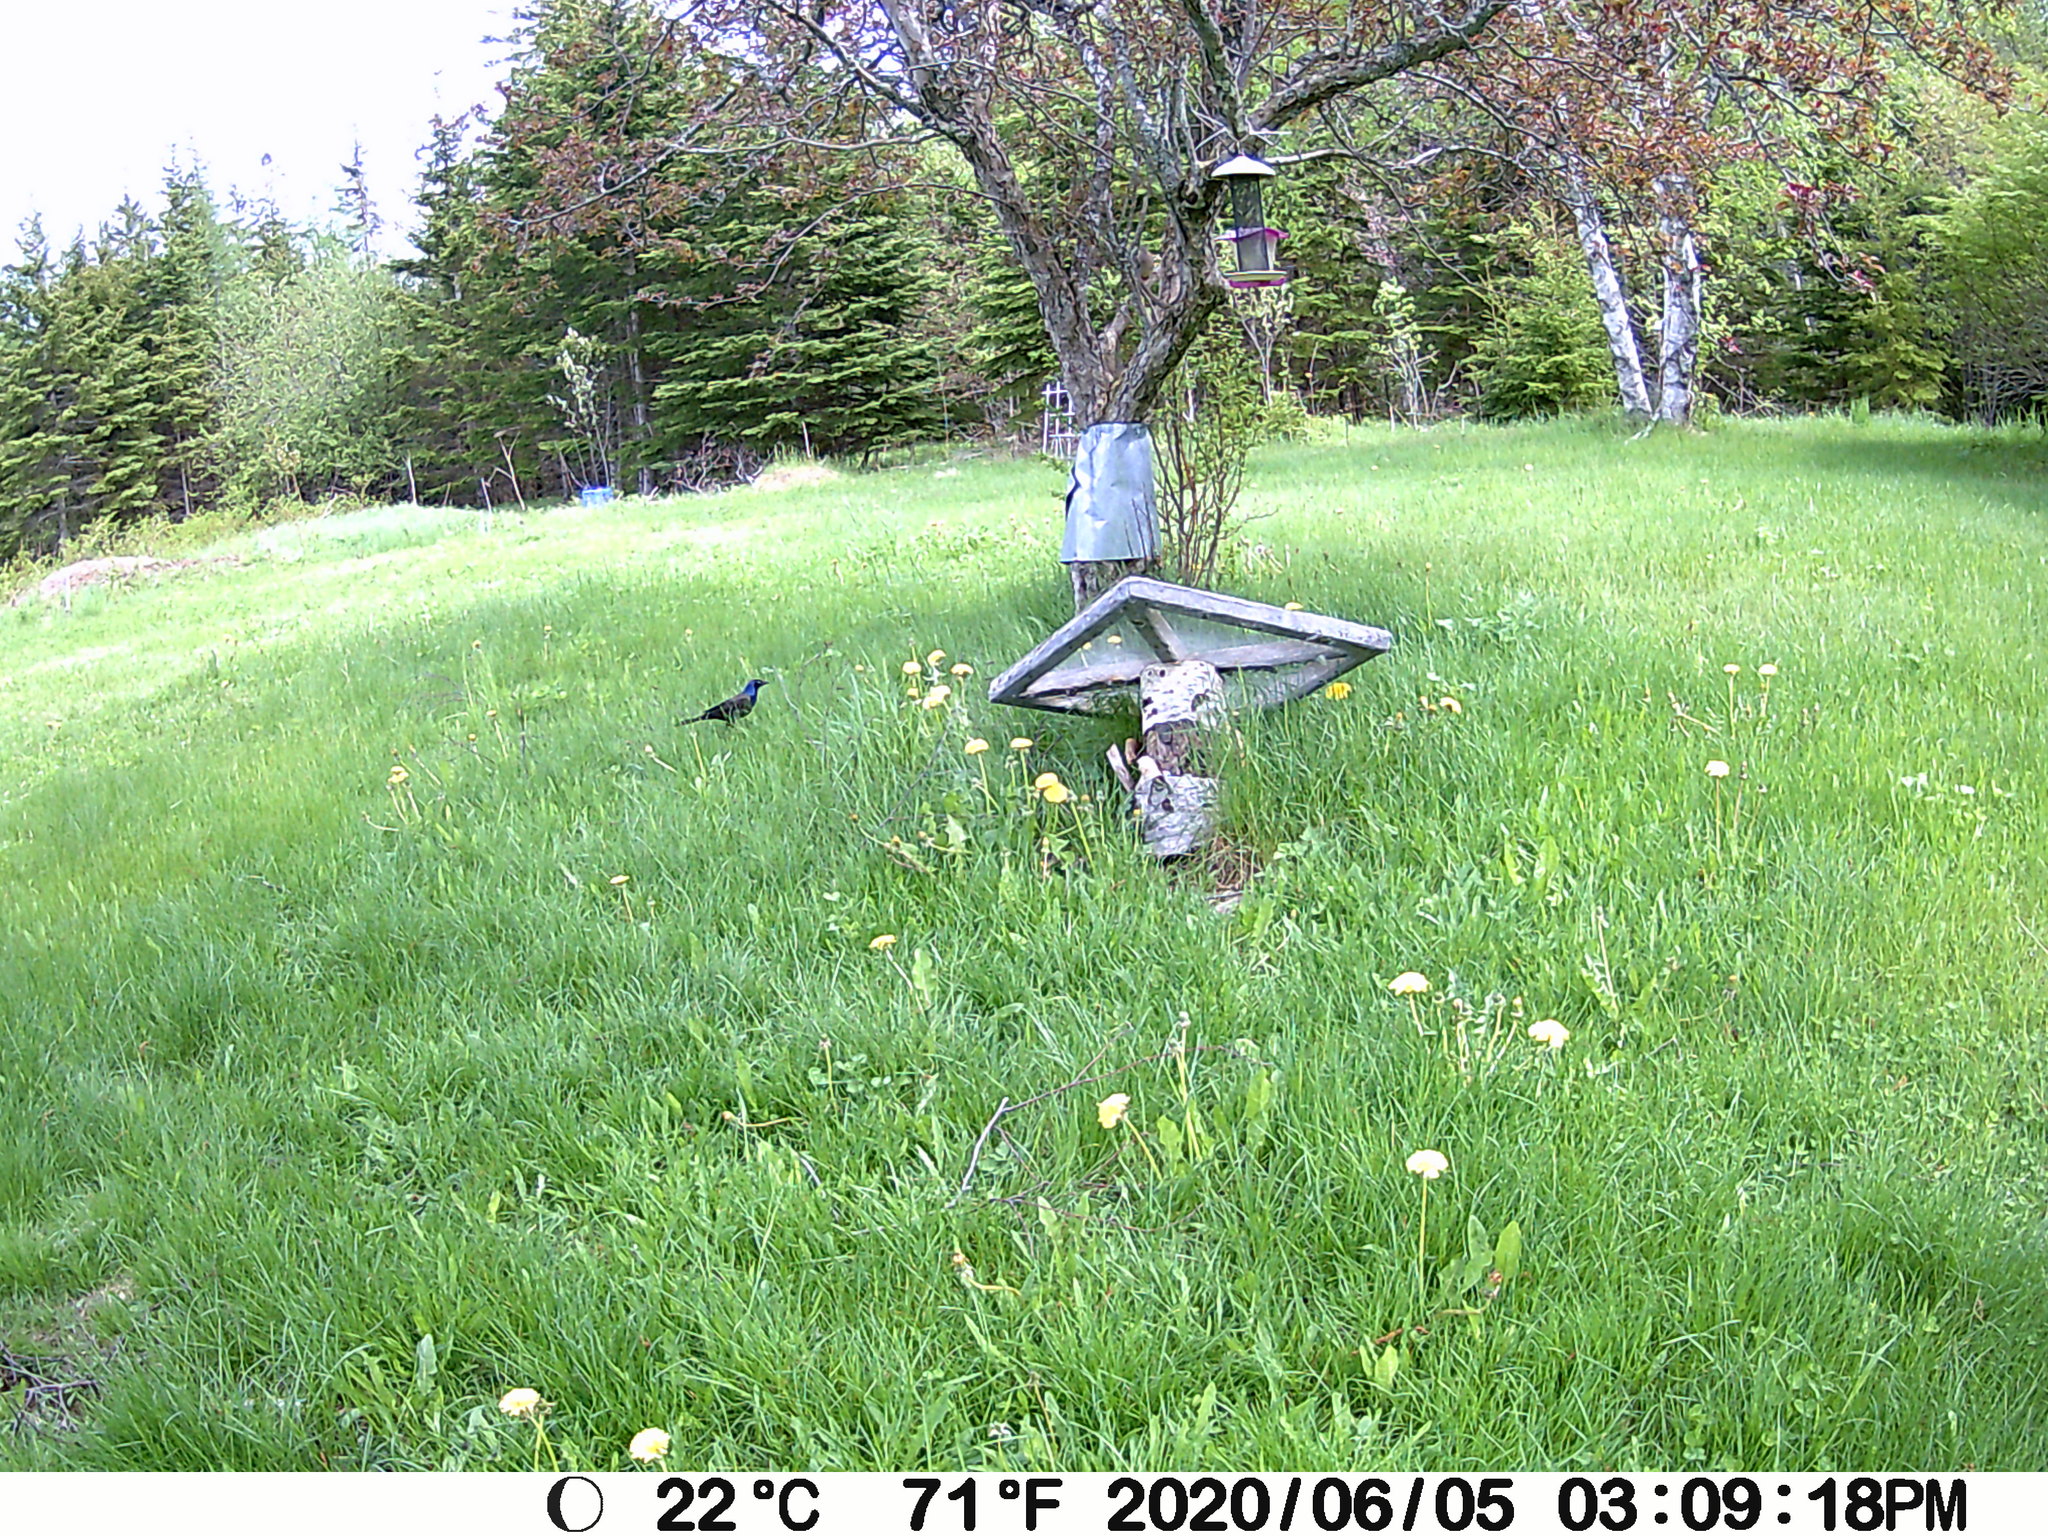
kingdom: Animalia
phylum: Chordata
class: Aves
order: Passeriformes
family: Icteridae
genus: Quiscalus
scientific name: Quiscalus quiscula
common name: Common grackle
